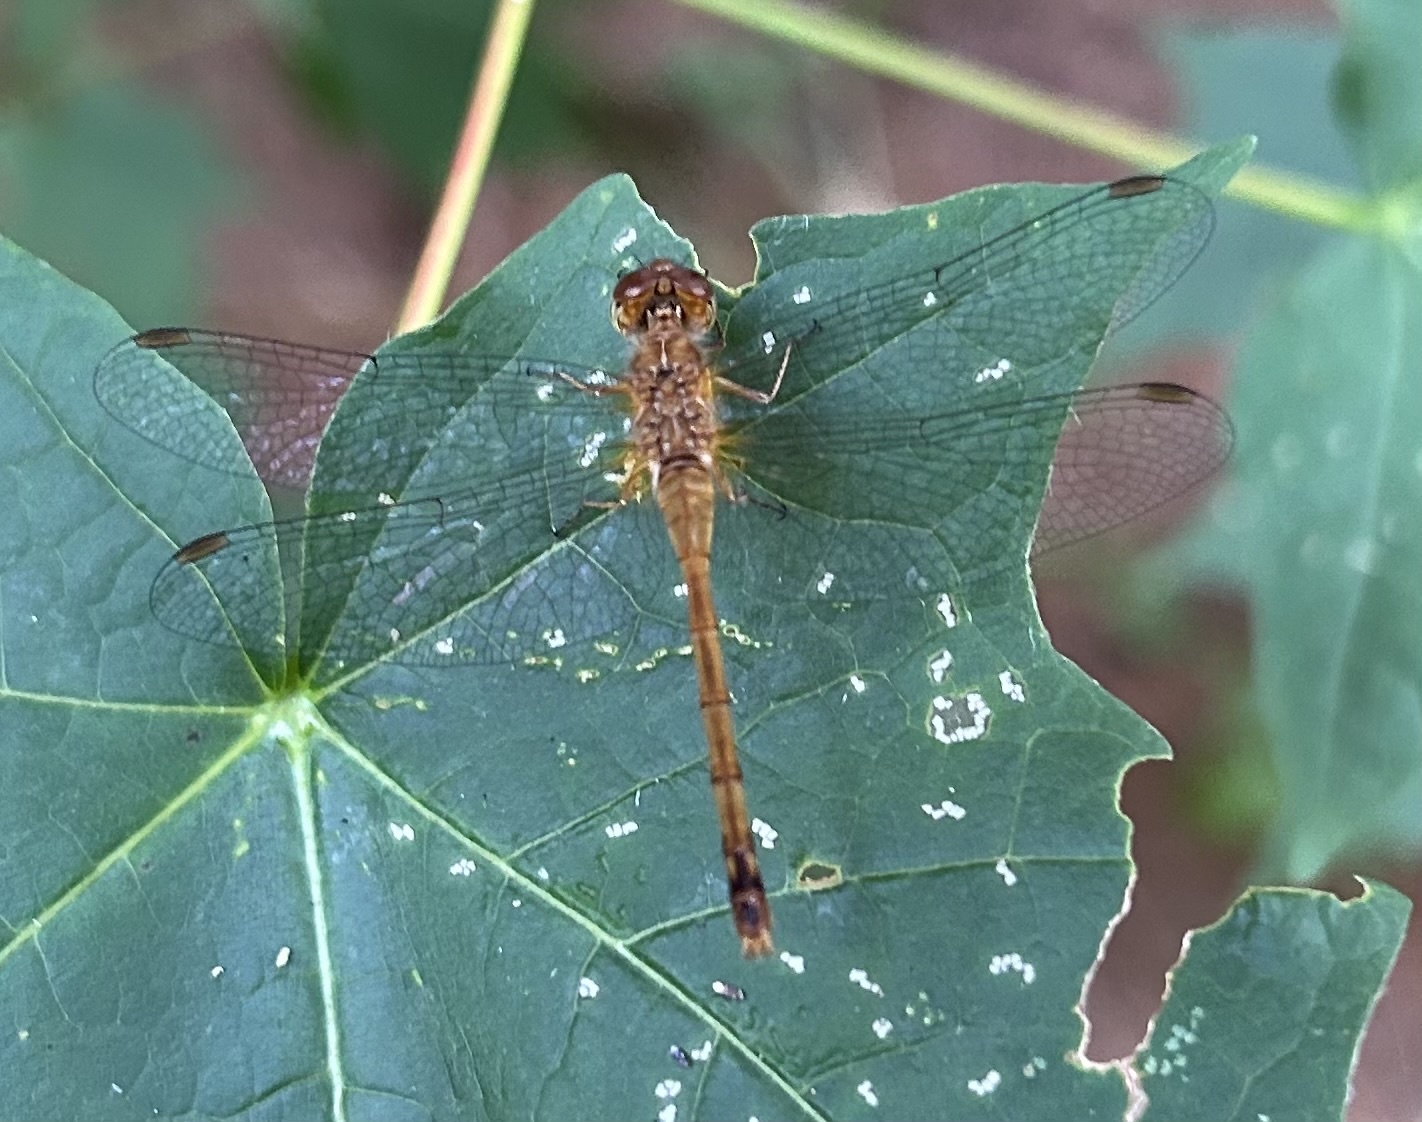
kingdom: Animalia
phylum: Arthropoda
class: Insecta
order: Odonata
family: Libellulidae
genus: Sympetrum
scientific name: Sympetrum vicinum
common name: Autumn meadowhawk
